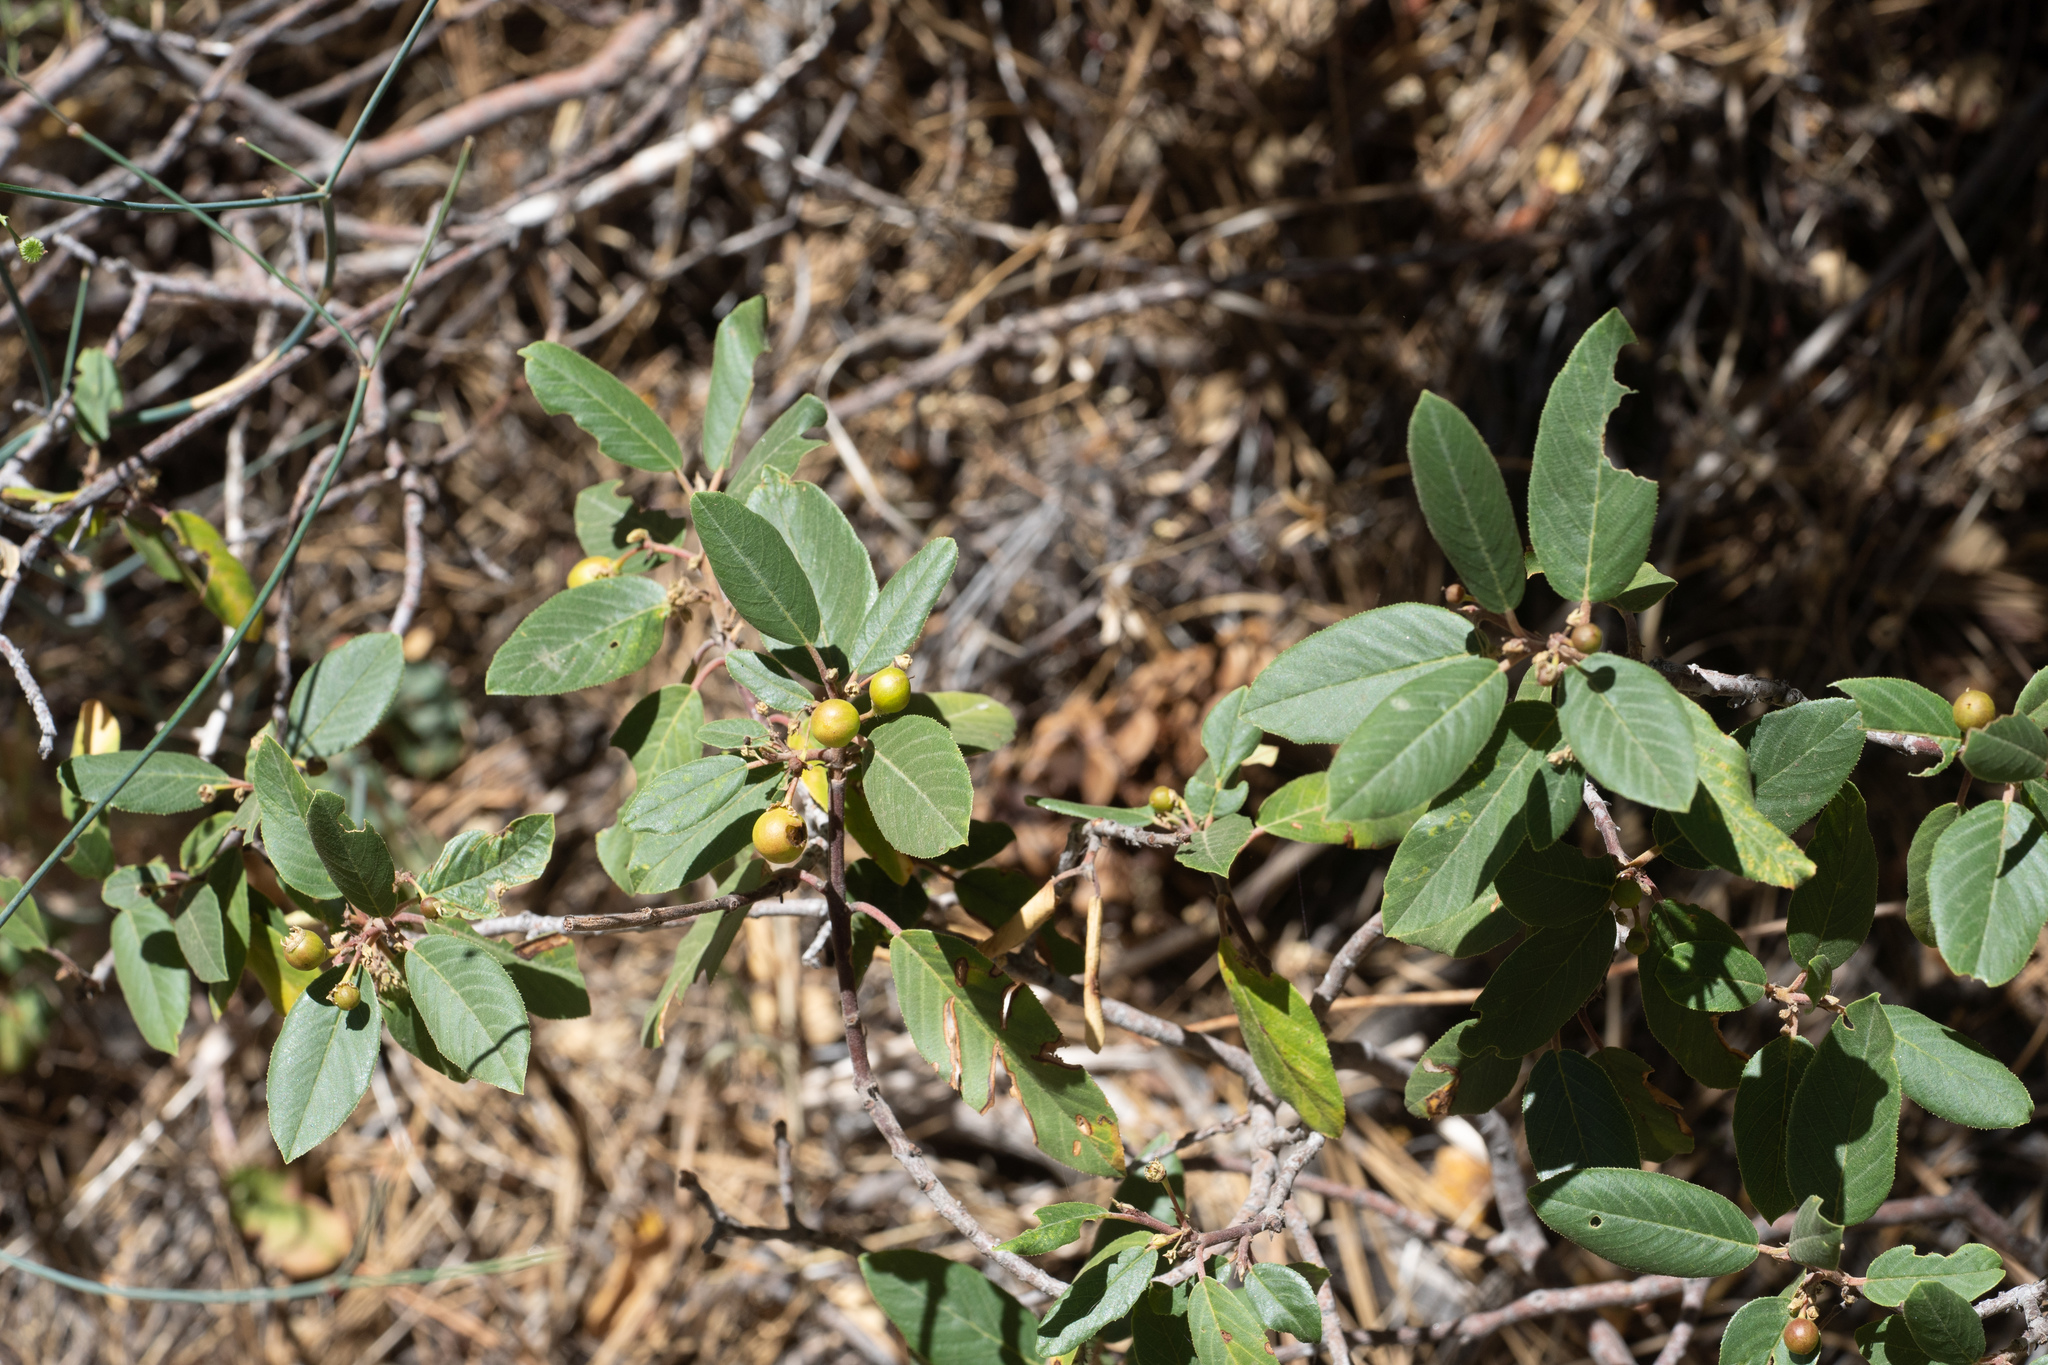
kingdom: Plantae
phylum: Tracheophyta
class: Magnoliopsida
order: Rosales
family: Rhamnaceae
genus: Frangula
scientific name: Frangula californica
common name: California buckthorn
